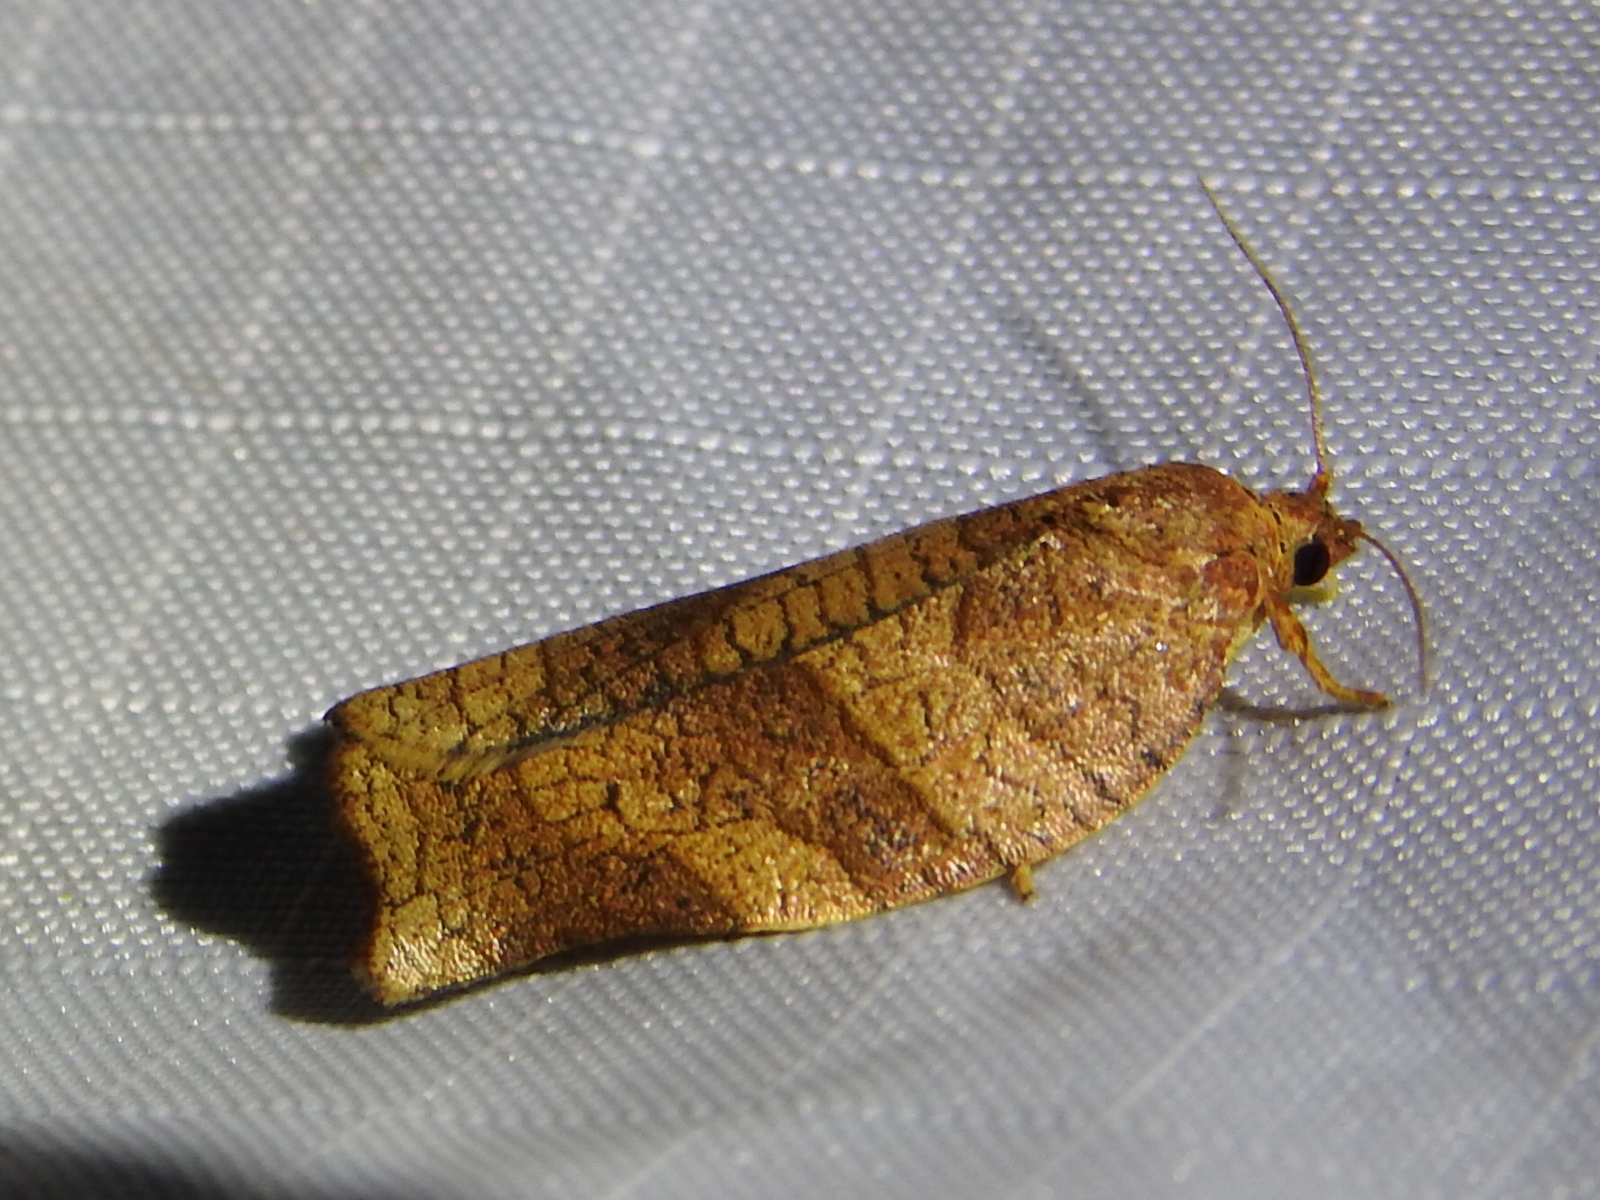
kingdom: Animalia
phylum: Arthropoda
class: Insecta
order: Lepidoptera
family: Tortricidae
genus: Choristoneura
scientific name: Choristoneura rosaceana
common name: Oblique-banded leafroller moth
